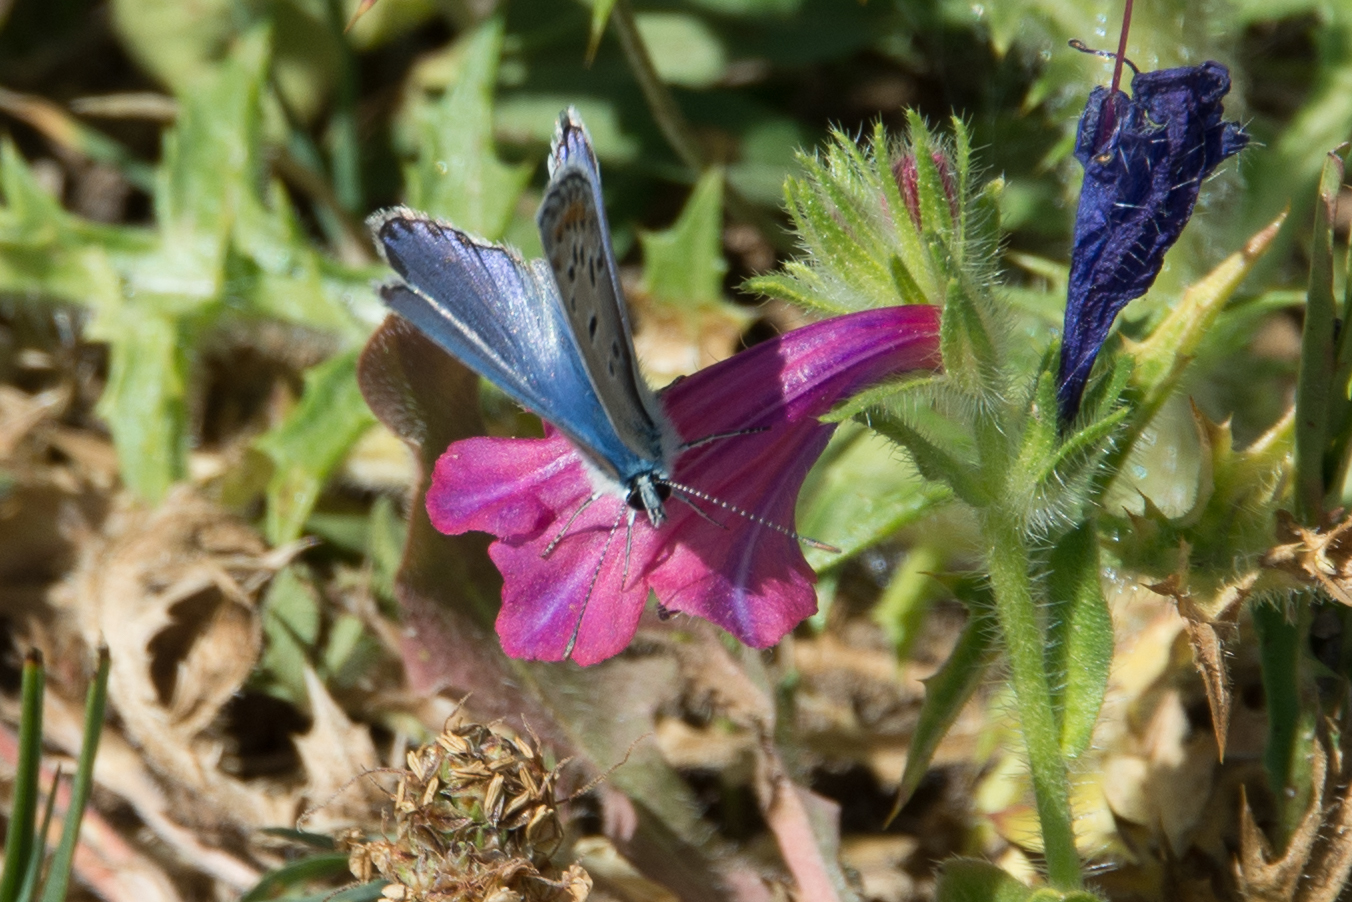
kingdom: Animalia
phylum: Arthropoda
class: Insecta
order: Lepidoptera
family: Lycaenidae
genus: Polyommatus
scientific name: Polyommatus celina
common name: Austaut's blue
